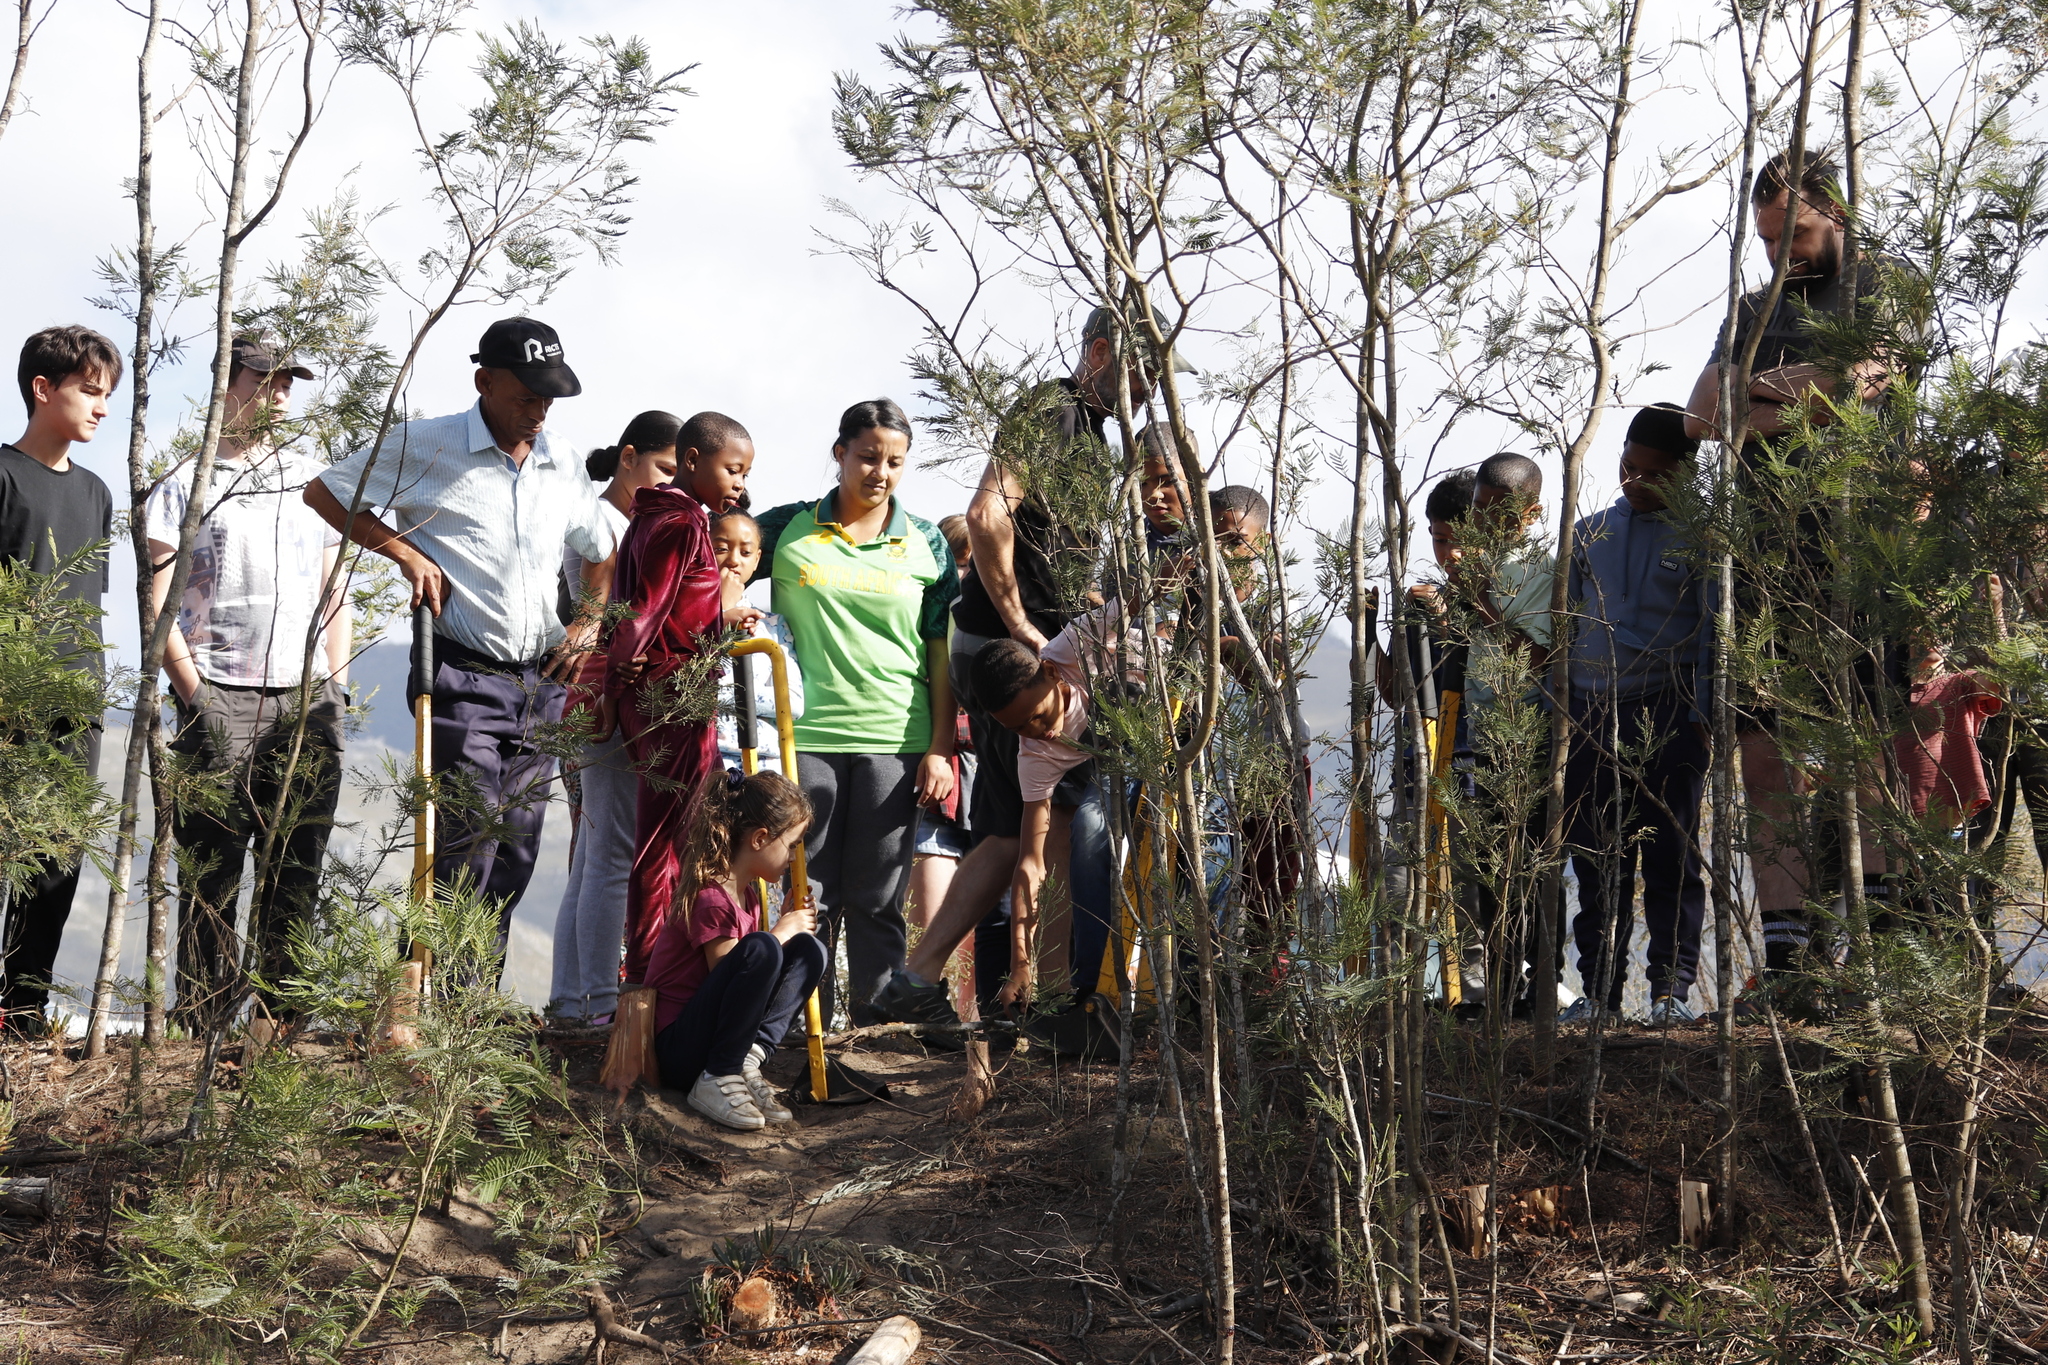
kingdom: Plantae
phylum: Tracheophyta
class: Magnoliopsida
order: Fabales
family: Fabaceae
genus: Acacia
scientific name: Acacia mearnsii
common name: Black wattle
